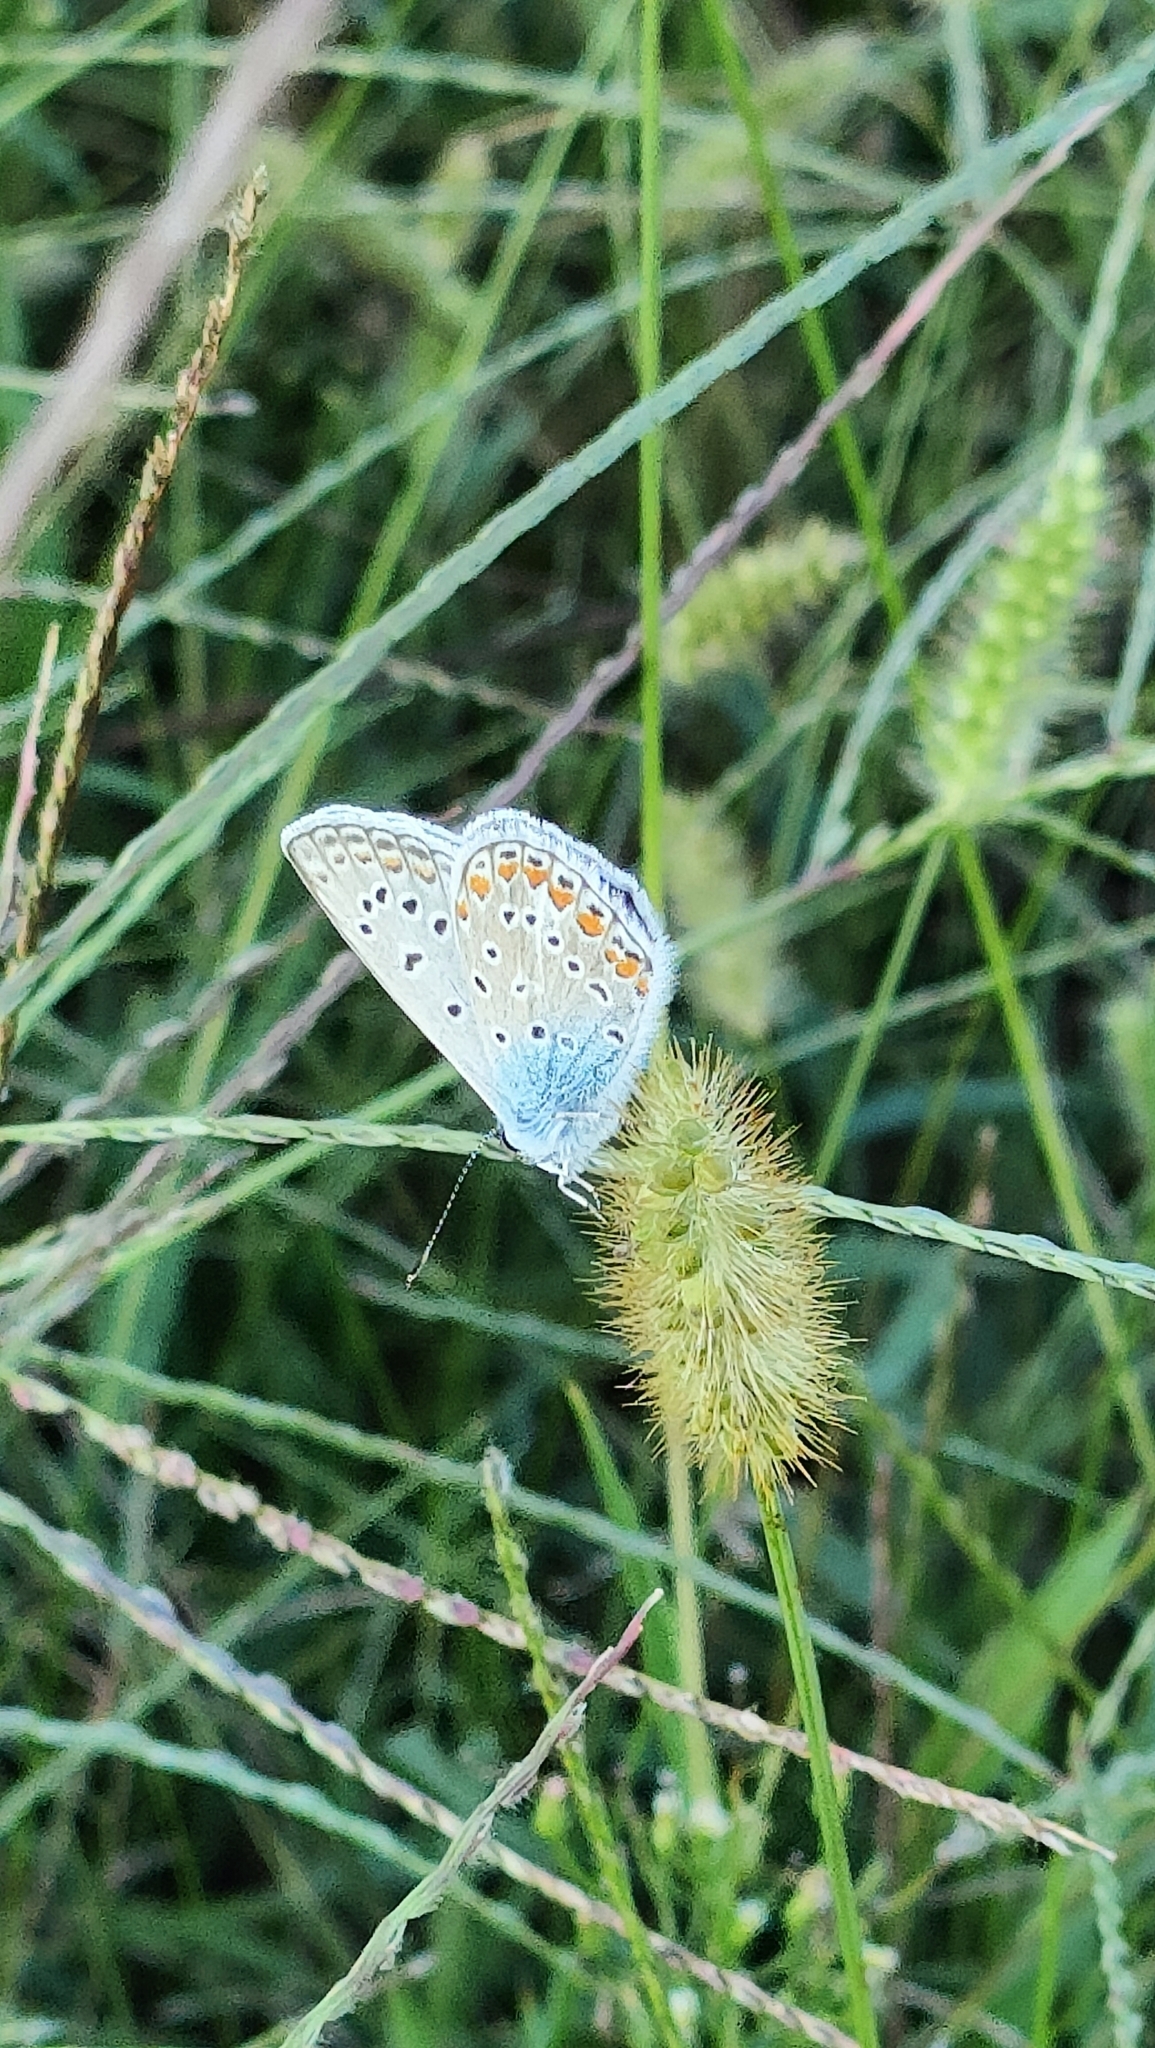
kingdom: Animalia
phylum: Arthropoda
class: Insecta
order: Lepidoptera
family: Lycaenidae
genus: Polyommatus
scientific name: Polyommatus icarus
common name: Common blue
